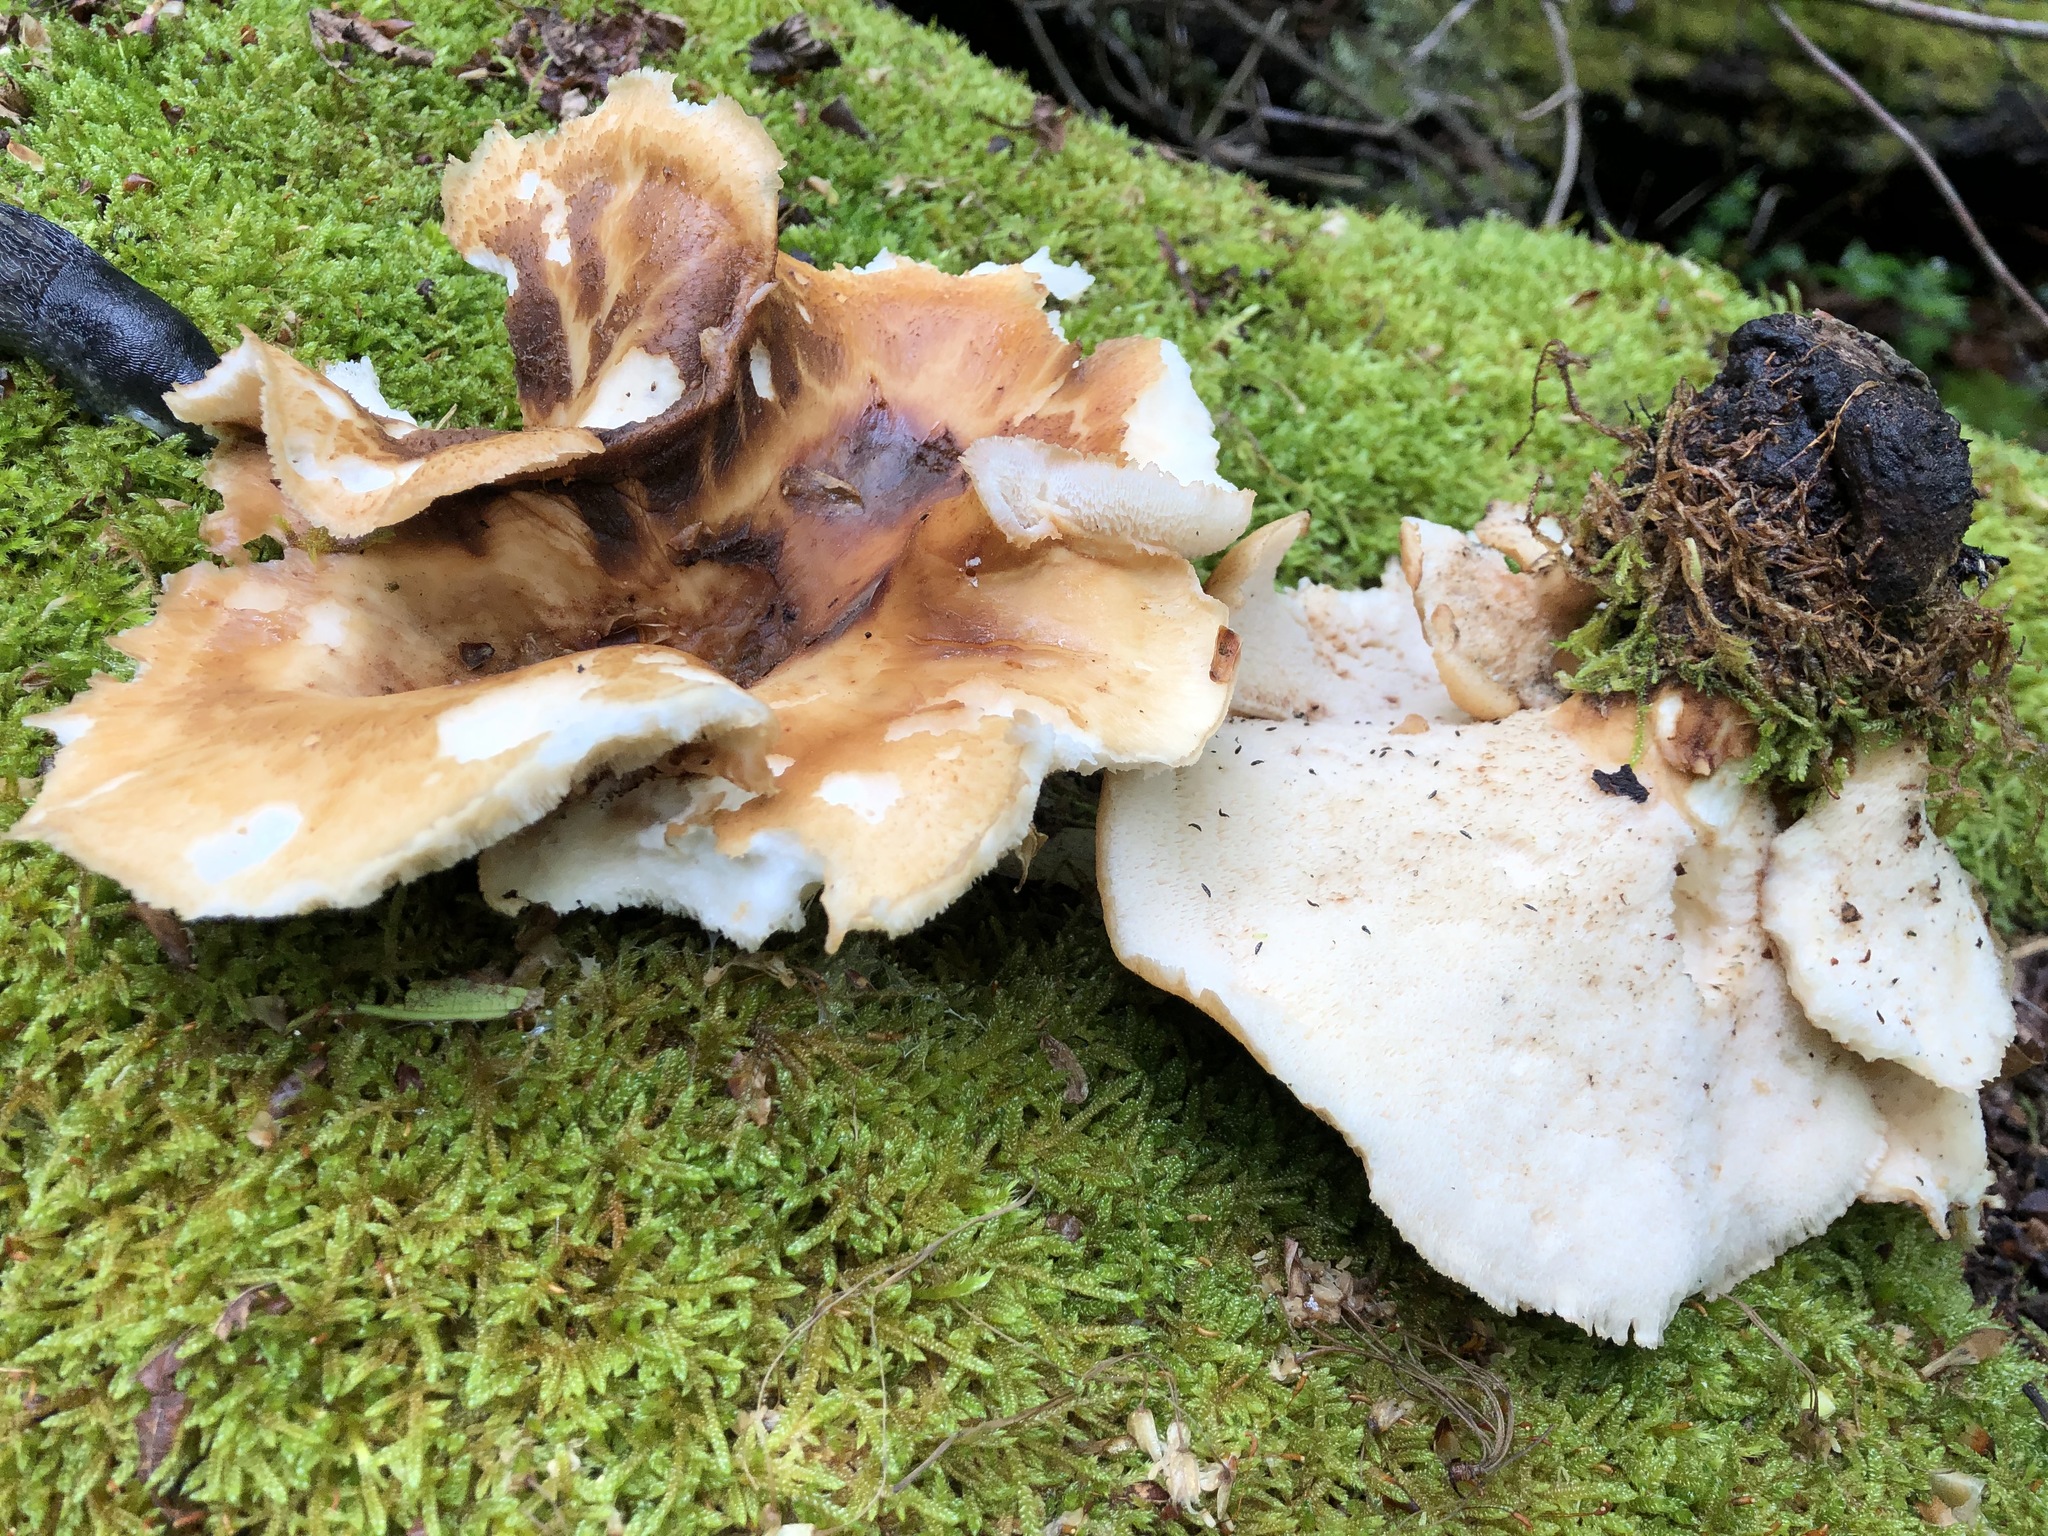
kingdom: Fungi
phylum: Basidiomycota
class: Agaricomycetes
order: Polyporales
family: Polyporaceae
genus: Polyporus
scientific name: Polyporus tuberaster
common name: Tuberous polypore
